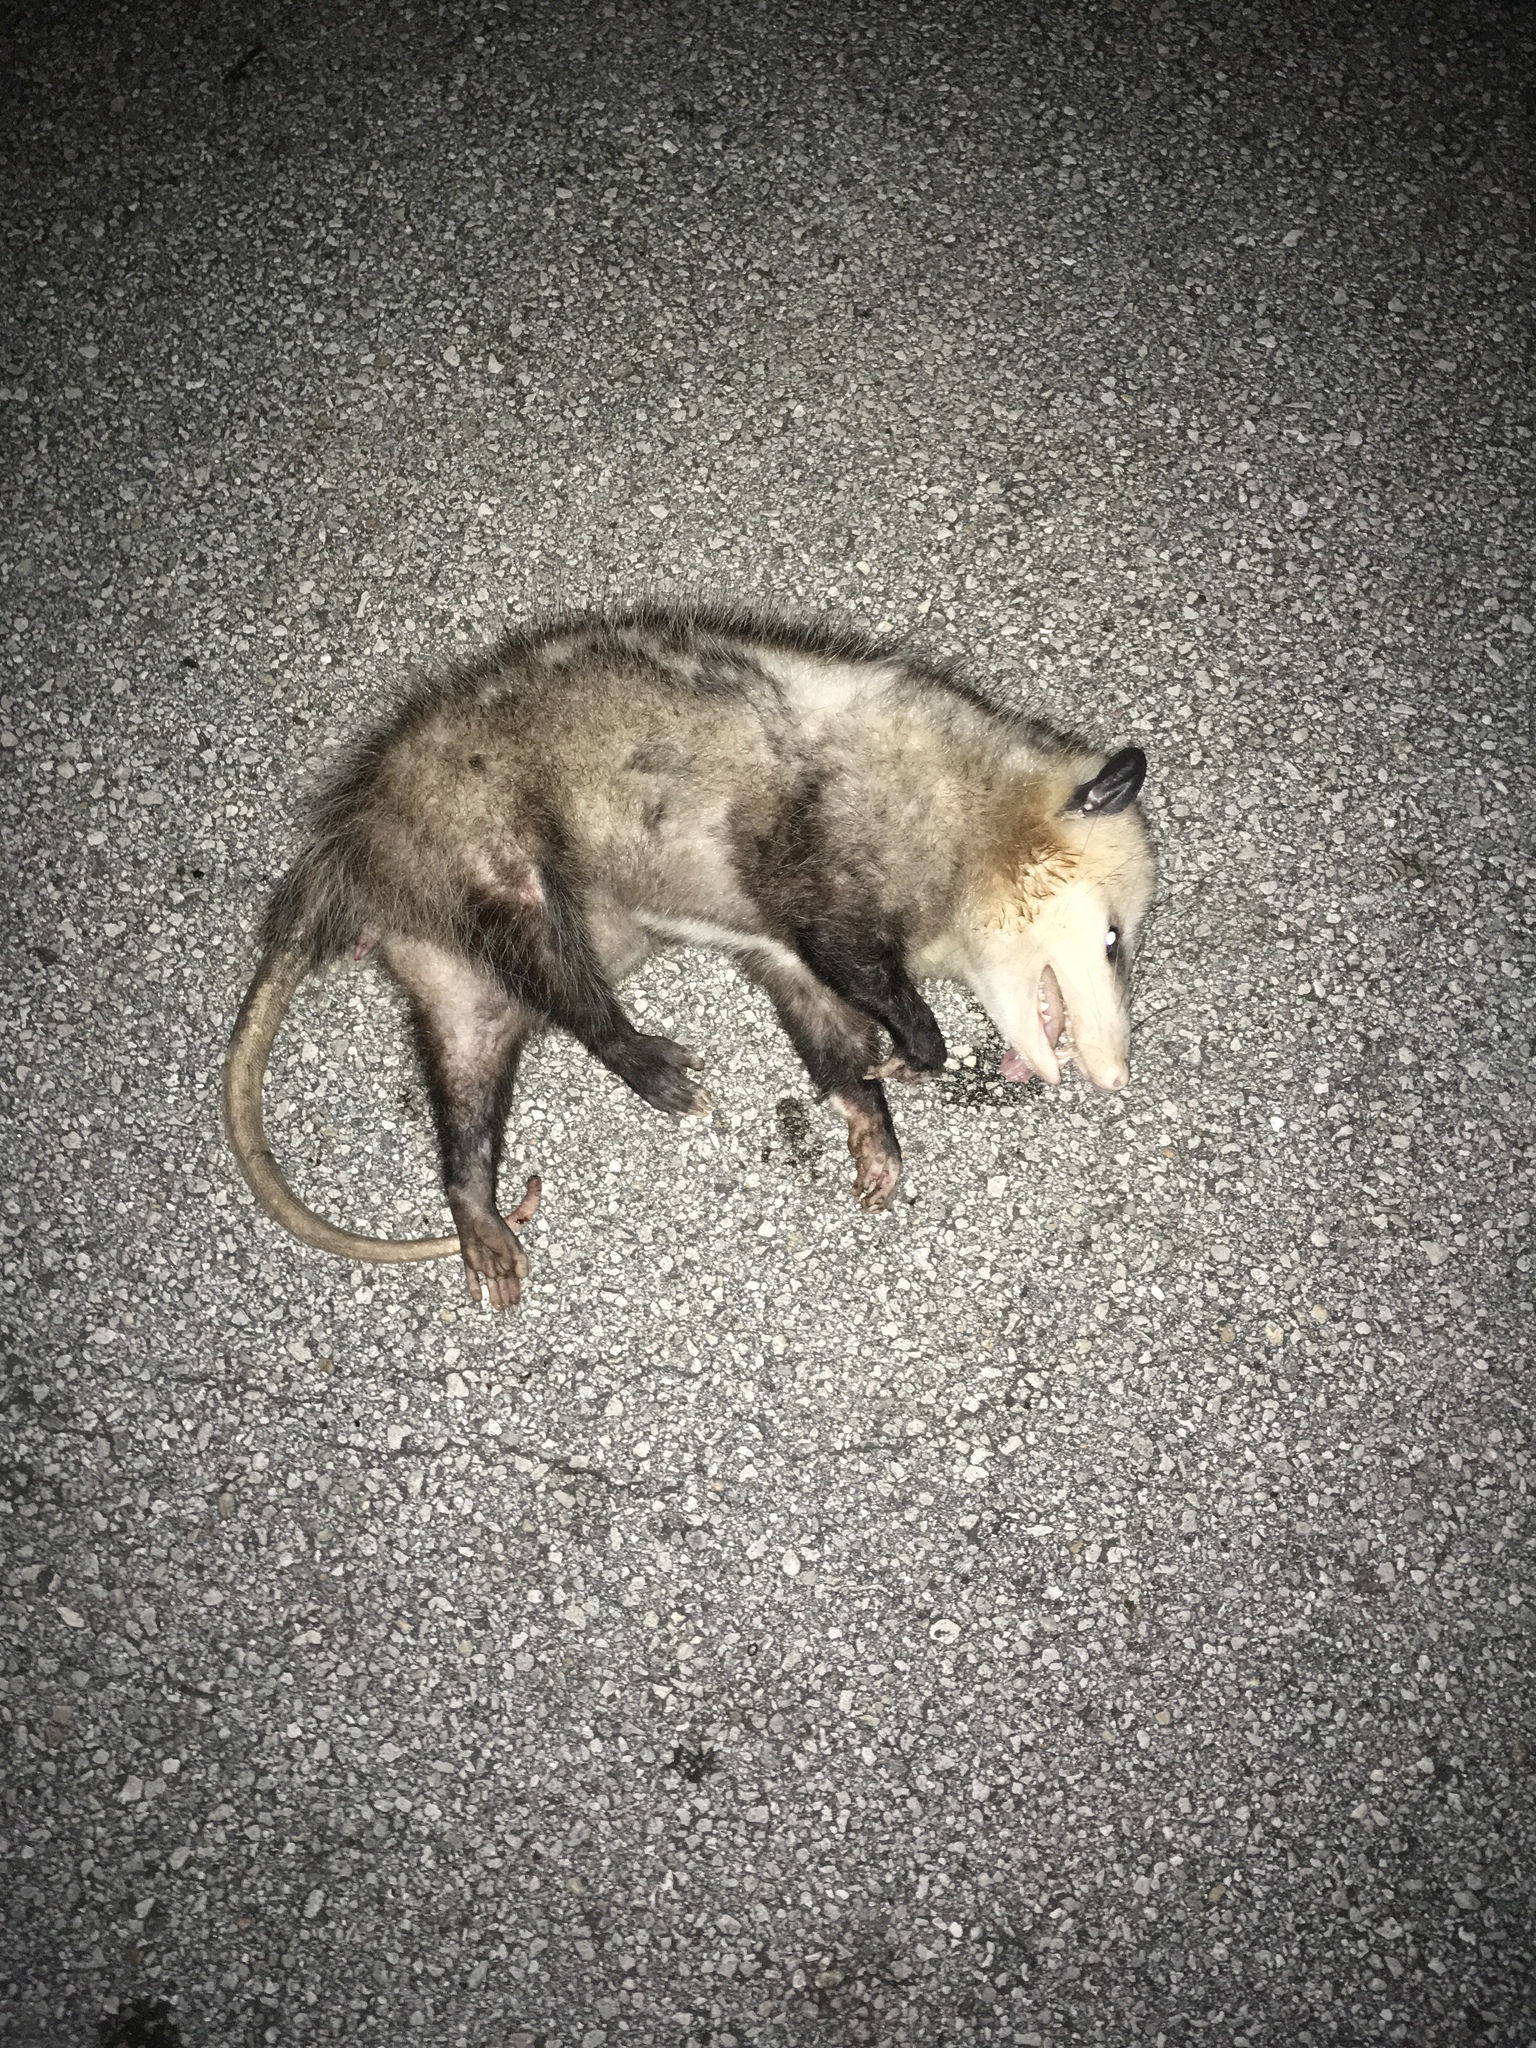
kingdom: Animalia
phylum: Chordata
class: Mammalia
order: Didelphimorphia
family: Didelphidae
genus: Didelphis
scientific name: Didelphis virginiana
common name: Virginia opossum
